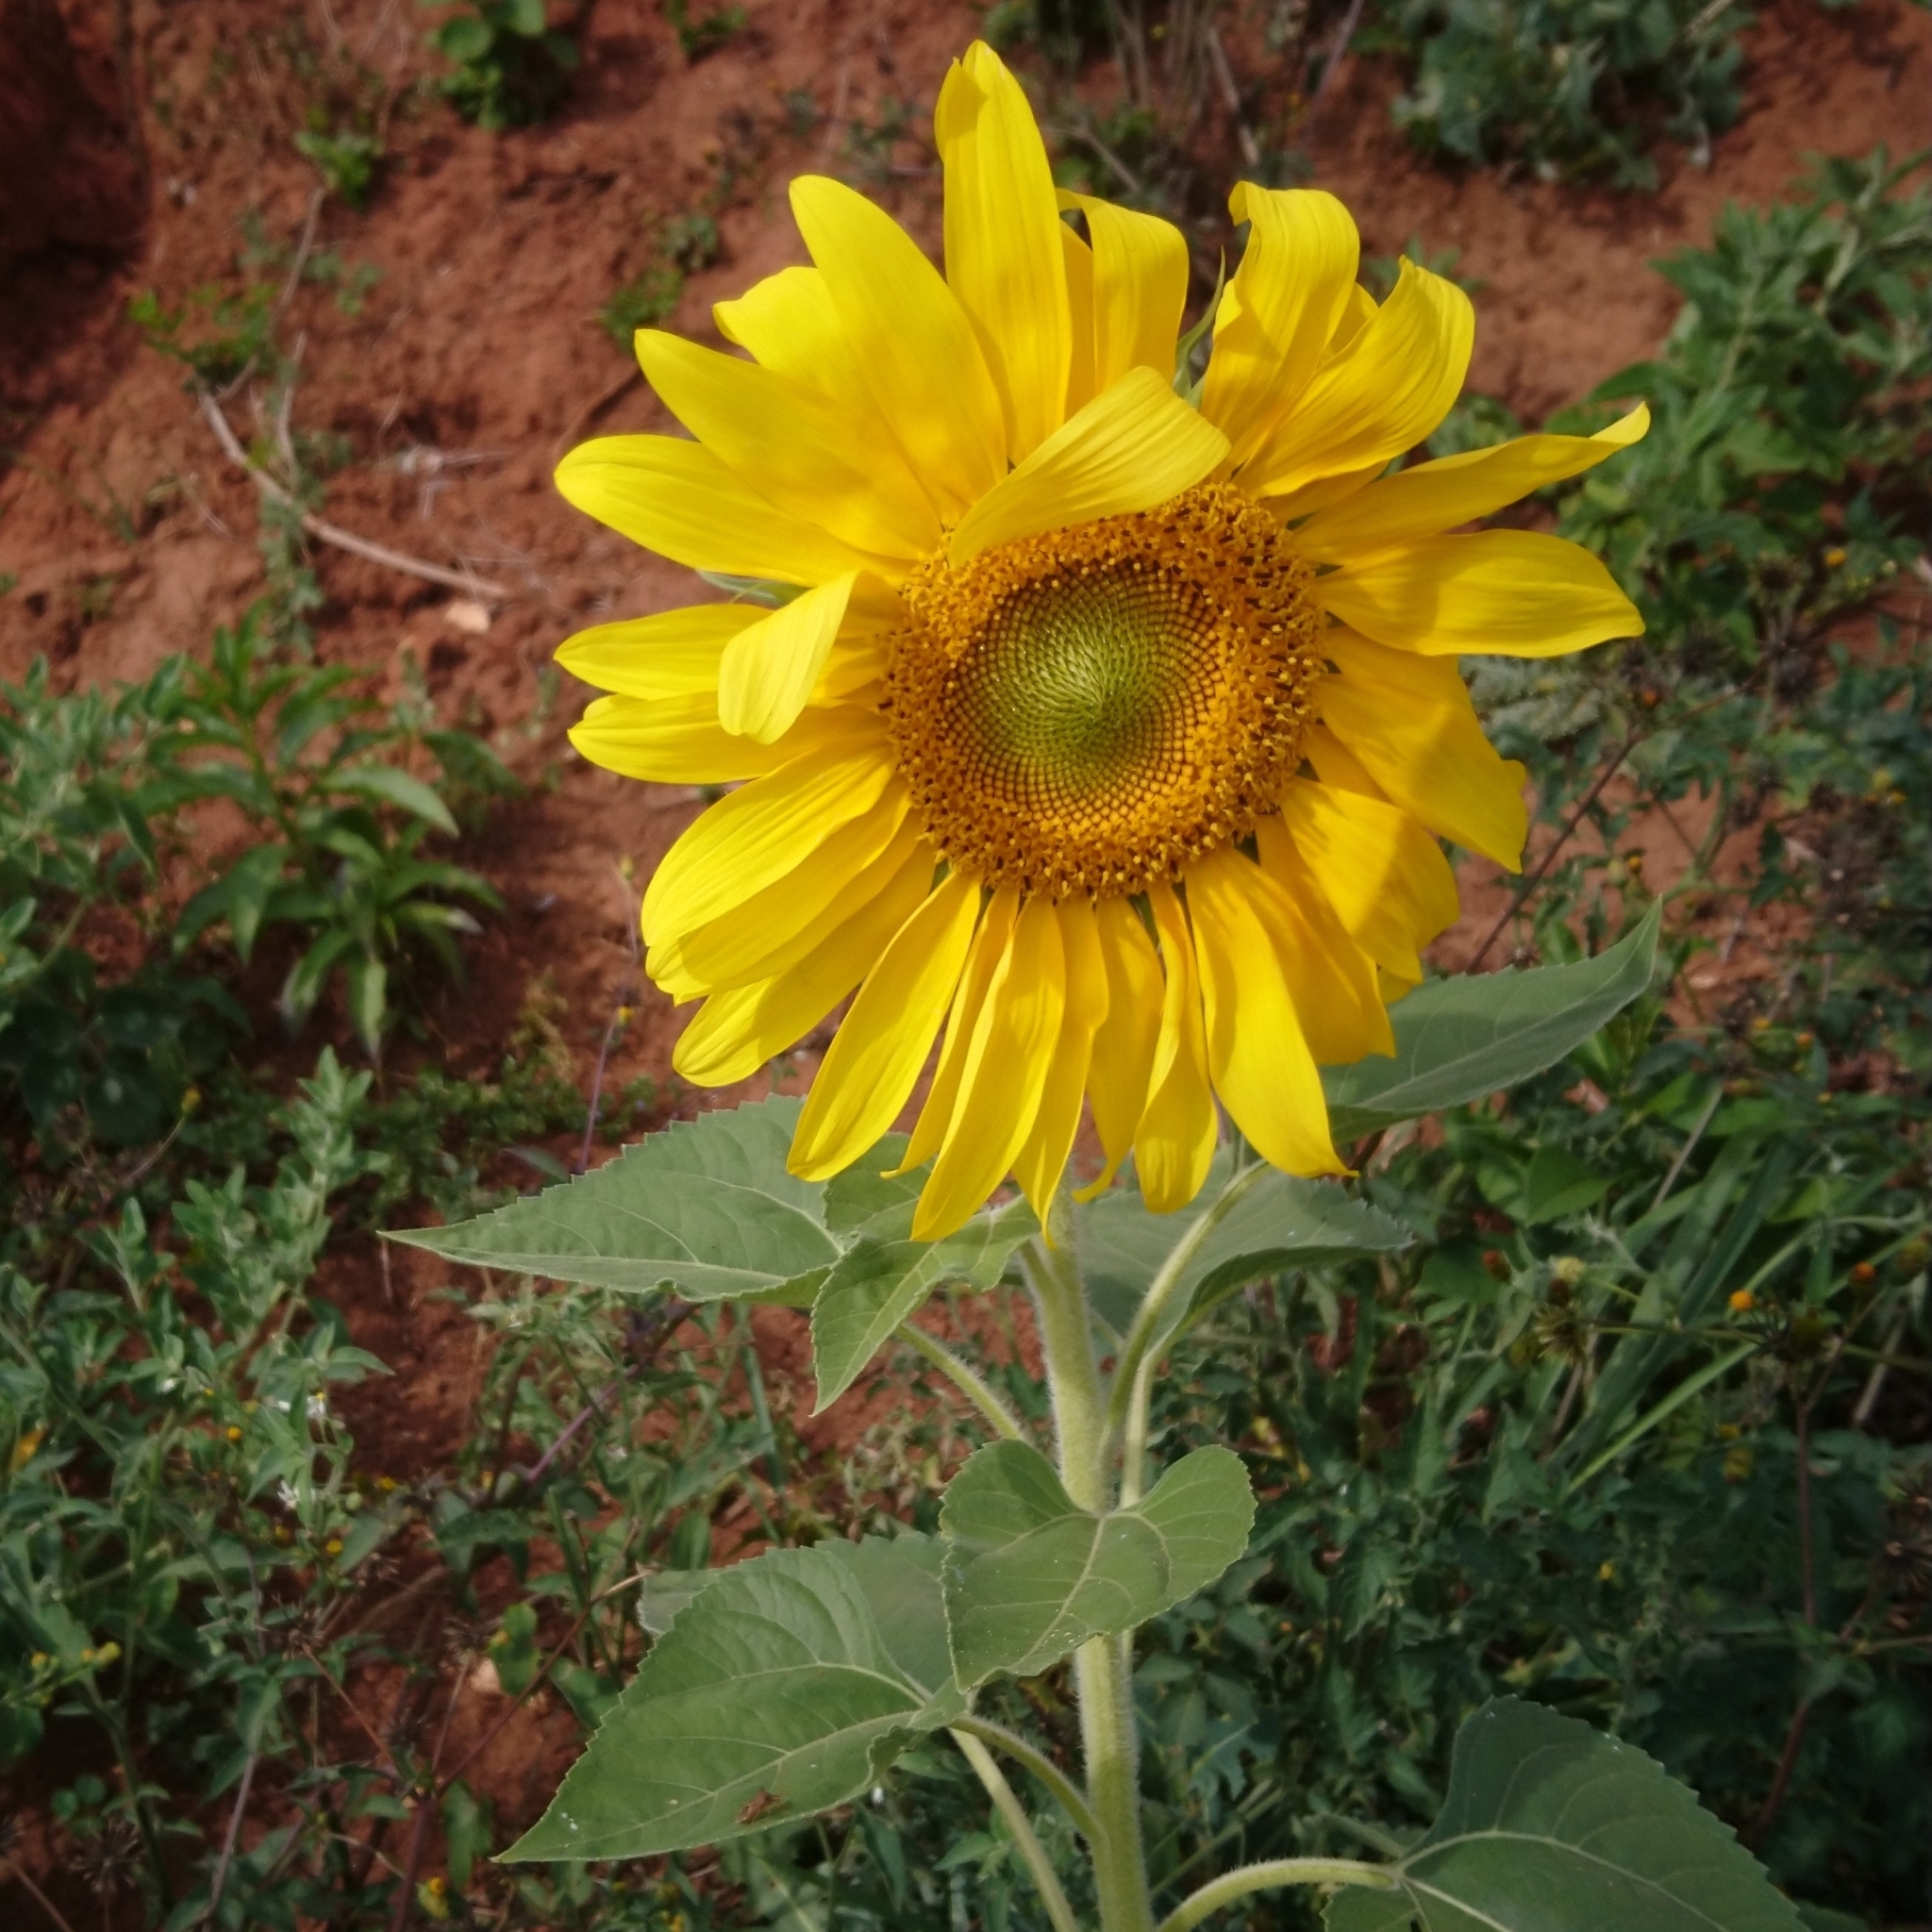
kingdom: Plantae
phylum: Tracheophyta
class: Magnoliopsida
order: Asterales
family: Asteraceae
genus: Helianthus
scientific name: Helianthus annuus
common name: Sunflower
